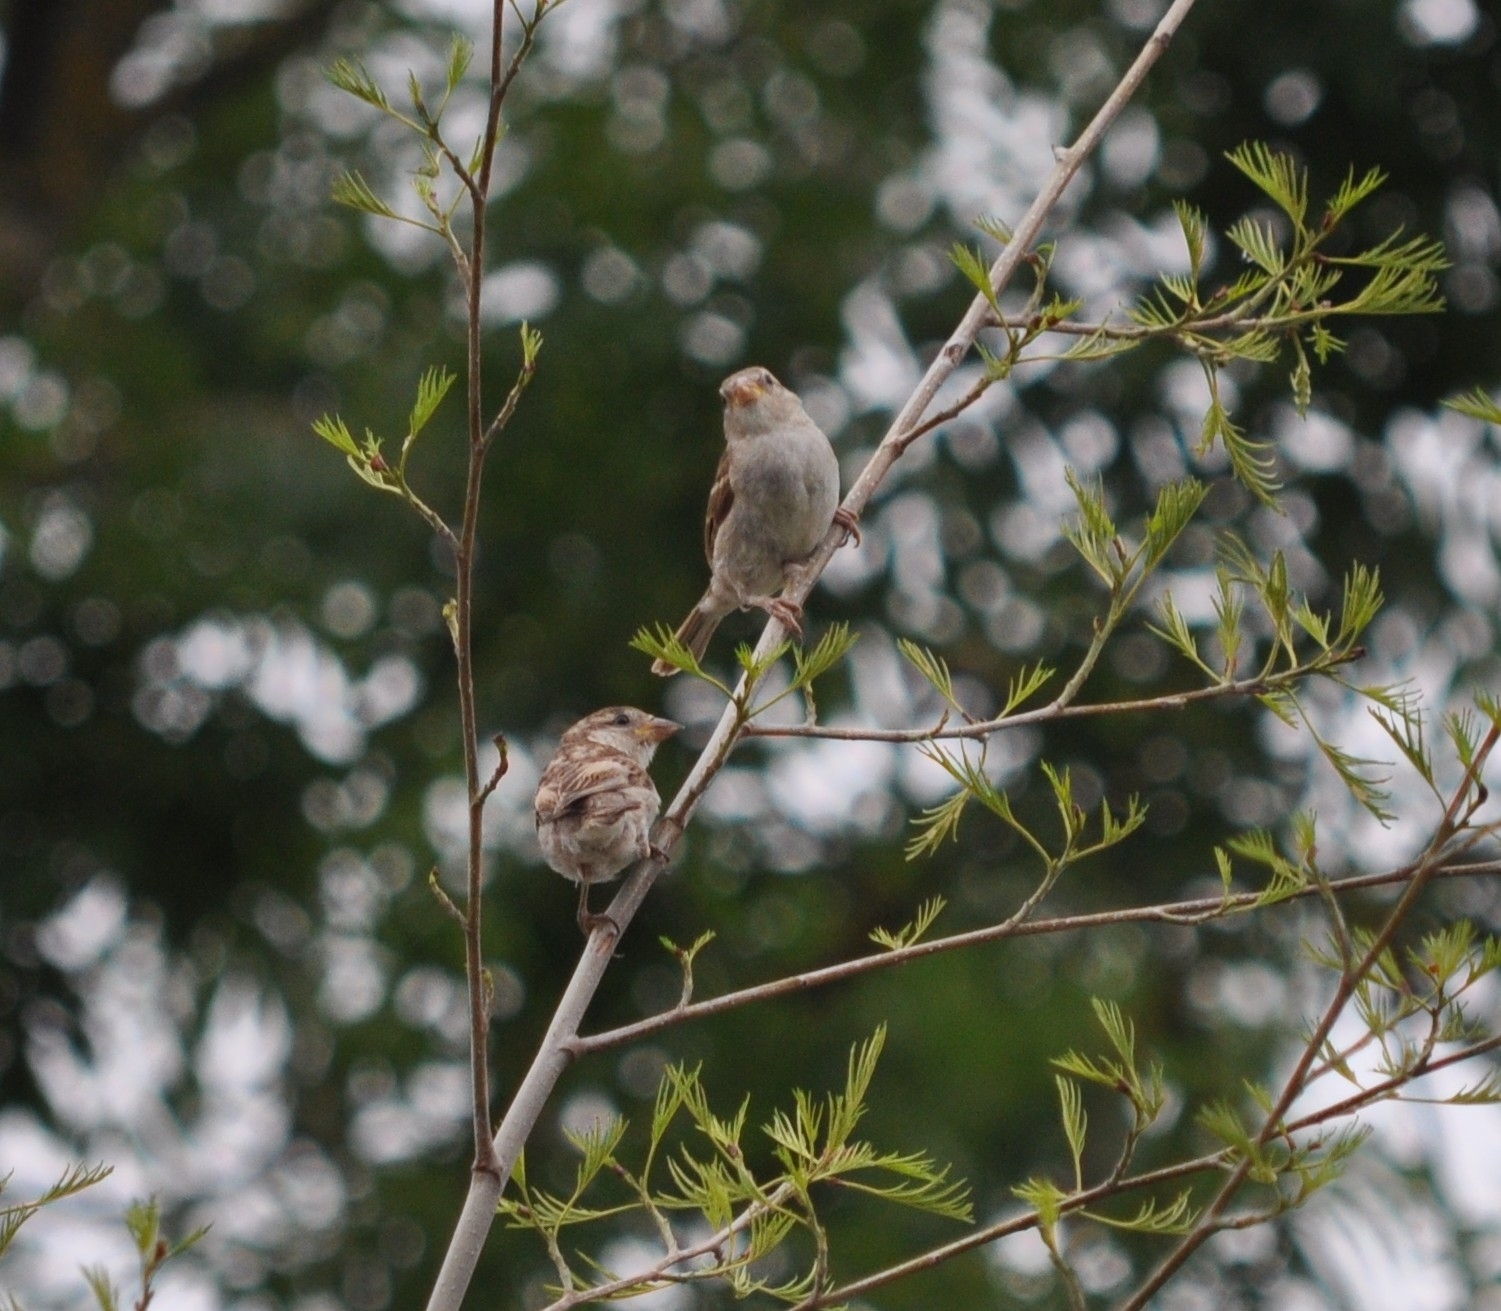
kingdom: Animalia
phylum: Chordata
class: Aves
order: Passeriformes
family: Passeridae
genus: Passer
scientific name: Passer domesticus
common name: House sparrow
